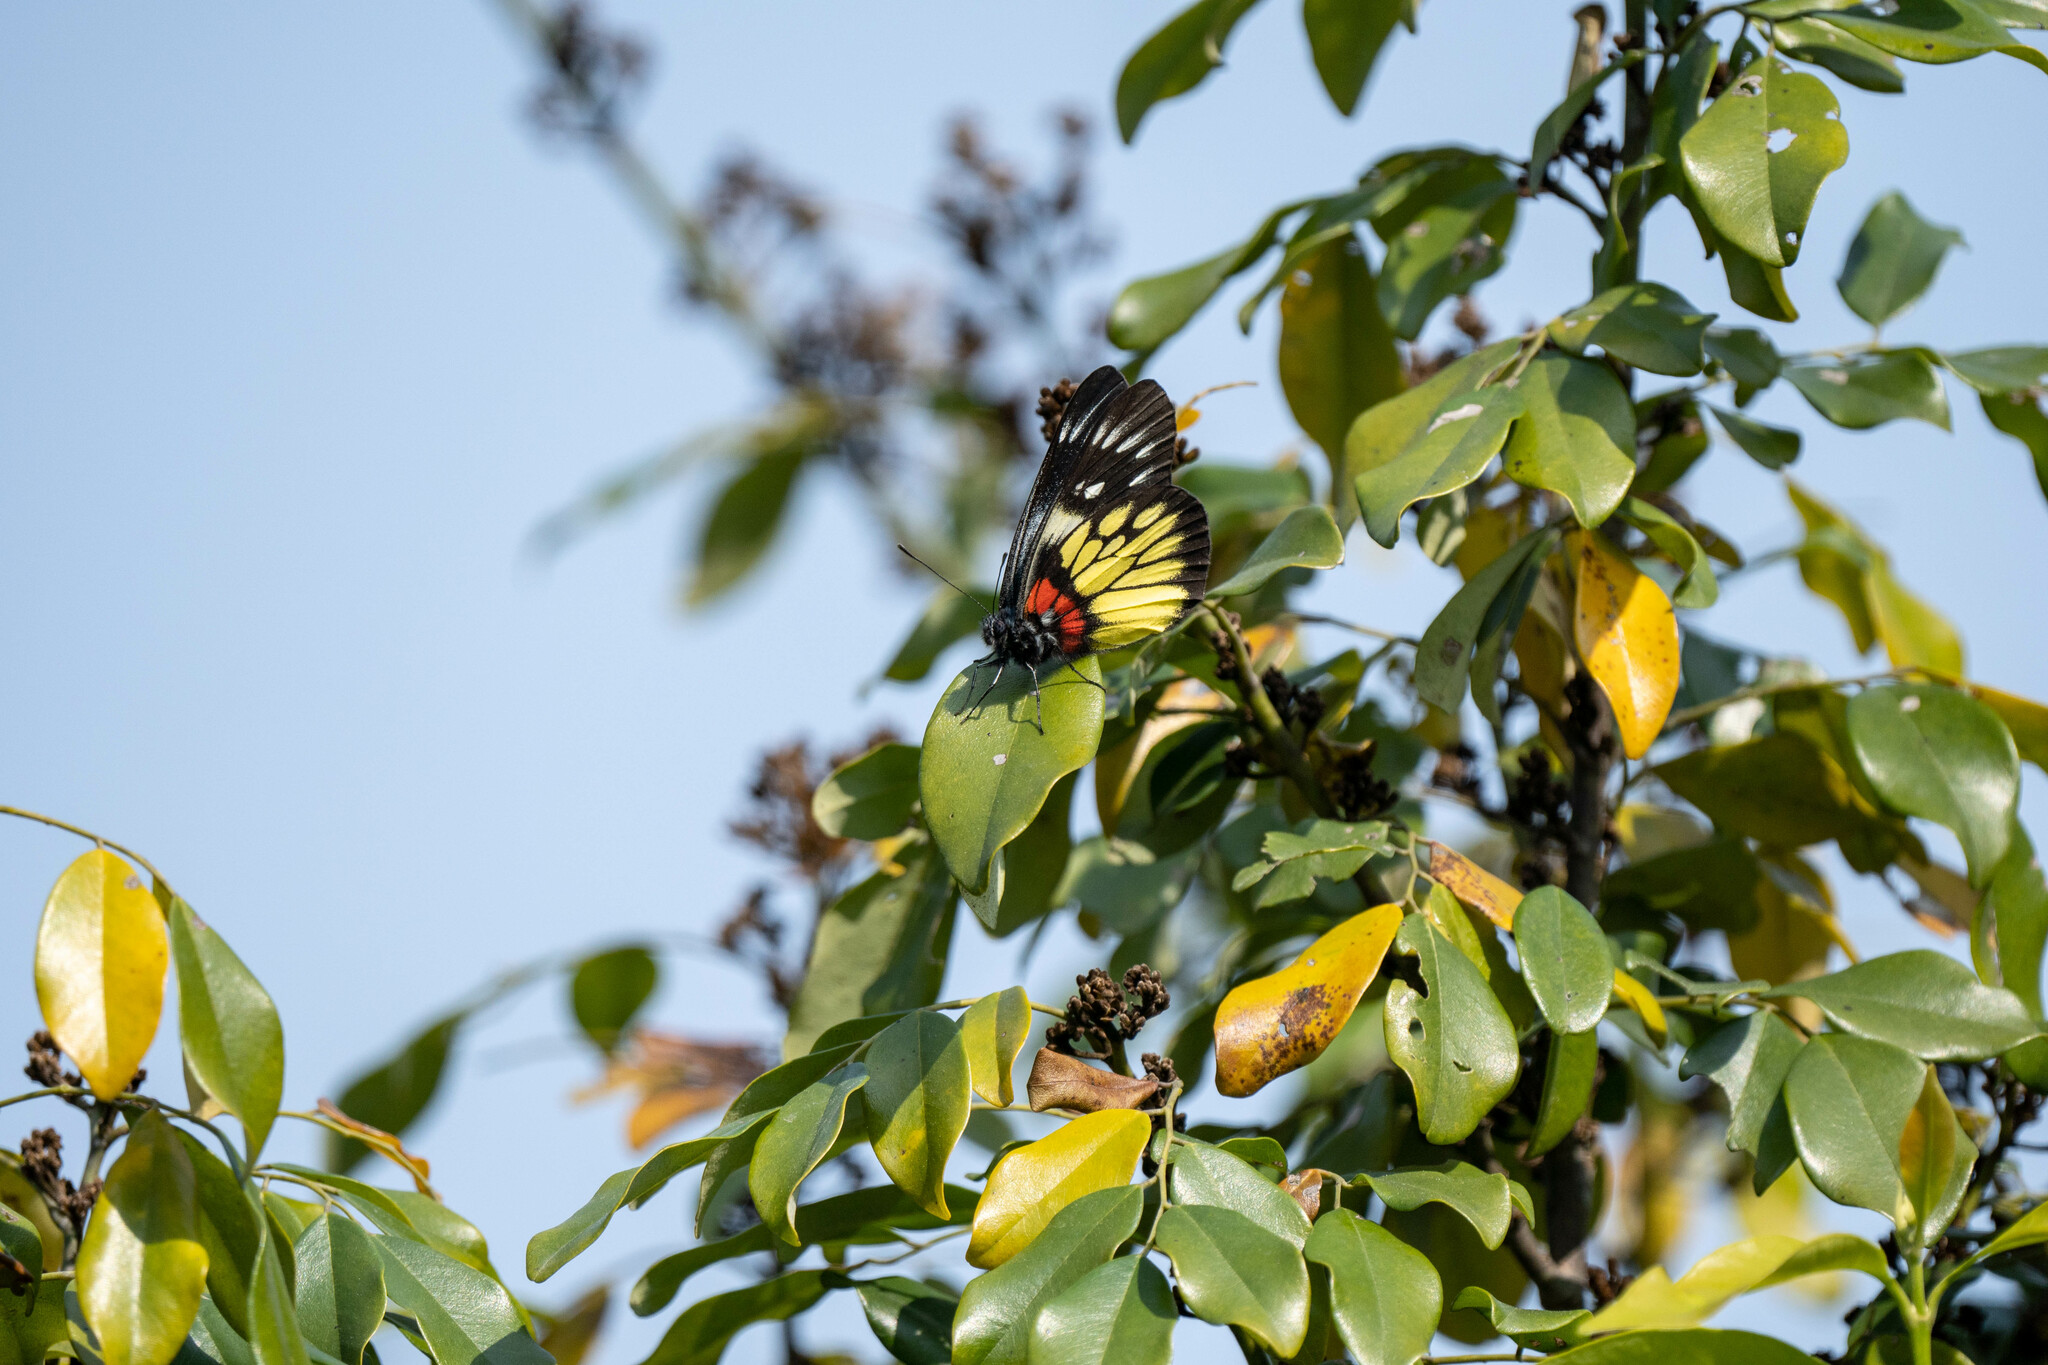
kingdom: Animalia
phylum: Arthropoda
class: Insecta
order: Lepidoptera
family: Pieridae
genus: Delias
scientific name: Delias pasithoe
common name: Red-base jezebel
